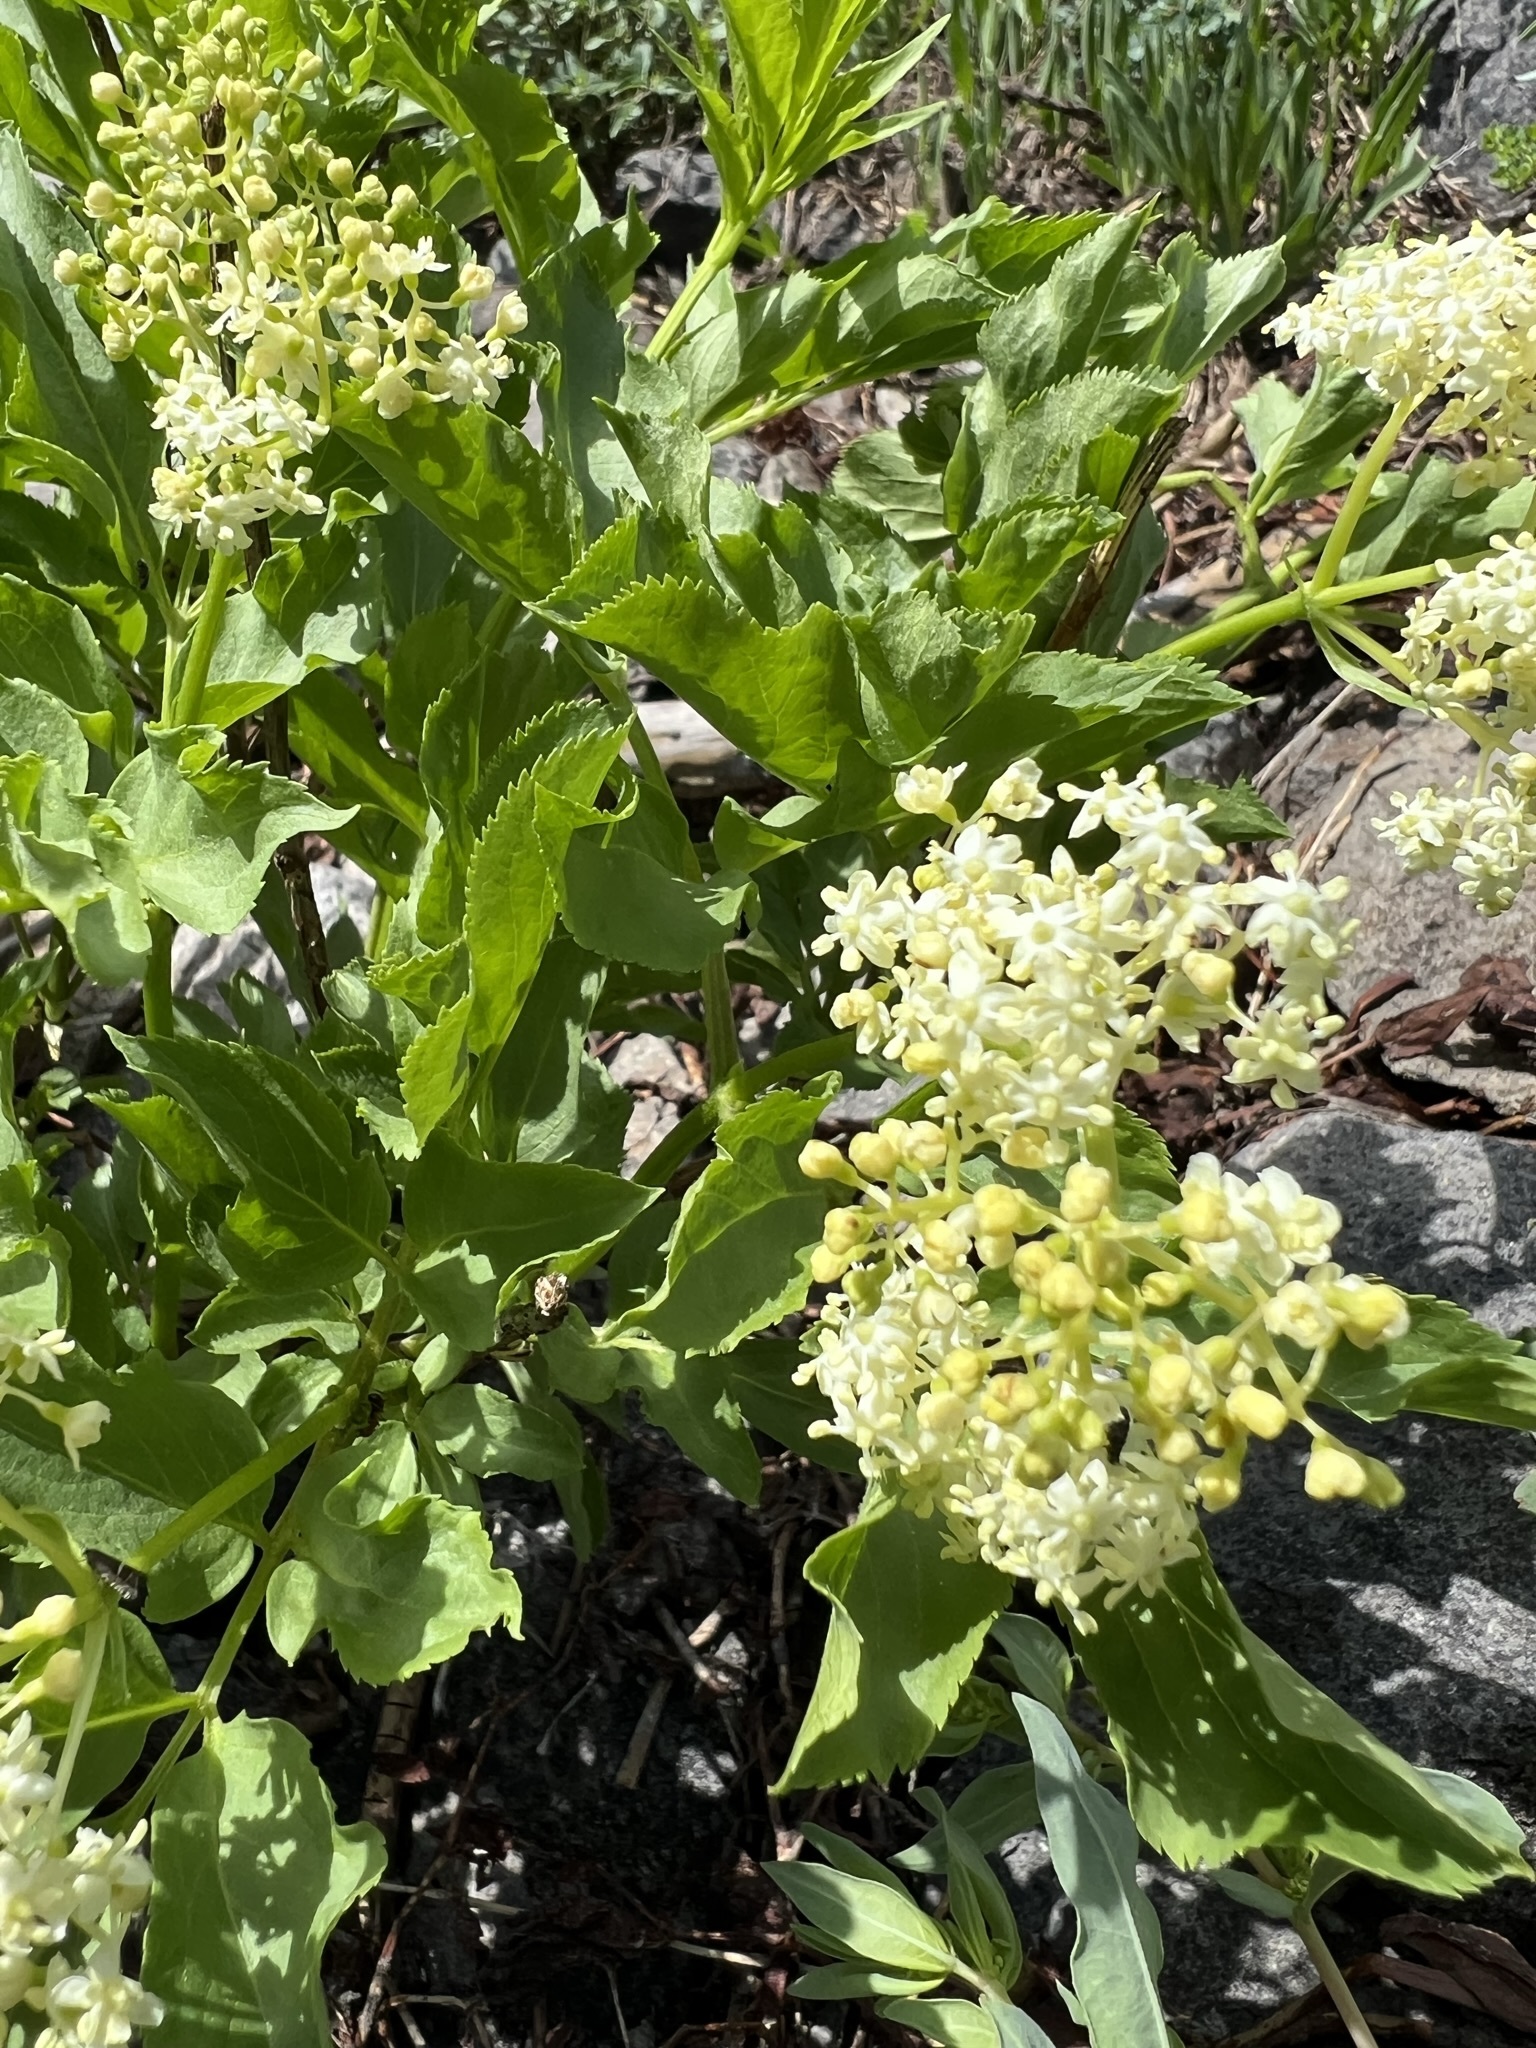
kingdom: Plantae
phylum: Tracheophyta
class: Magnoliopsida
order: Dipsacales
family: Viburnaceae
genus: Sambucus
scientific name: Sambucus racemosa
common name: Red-berried elder
